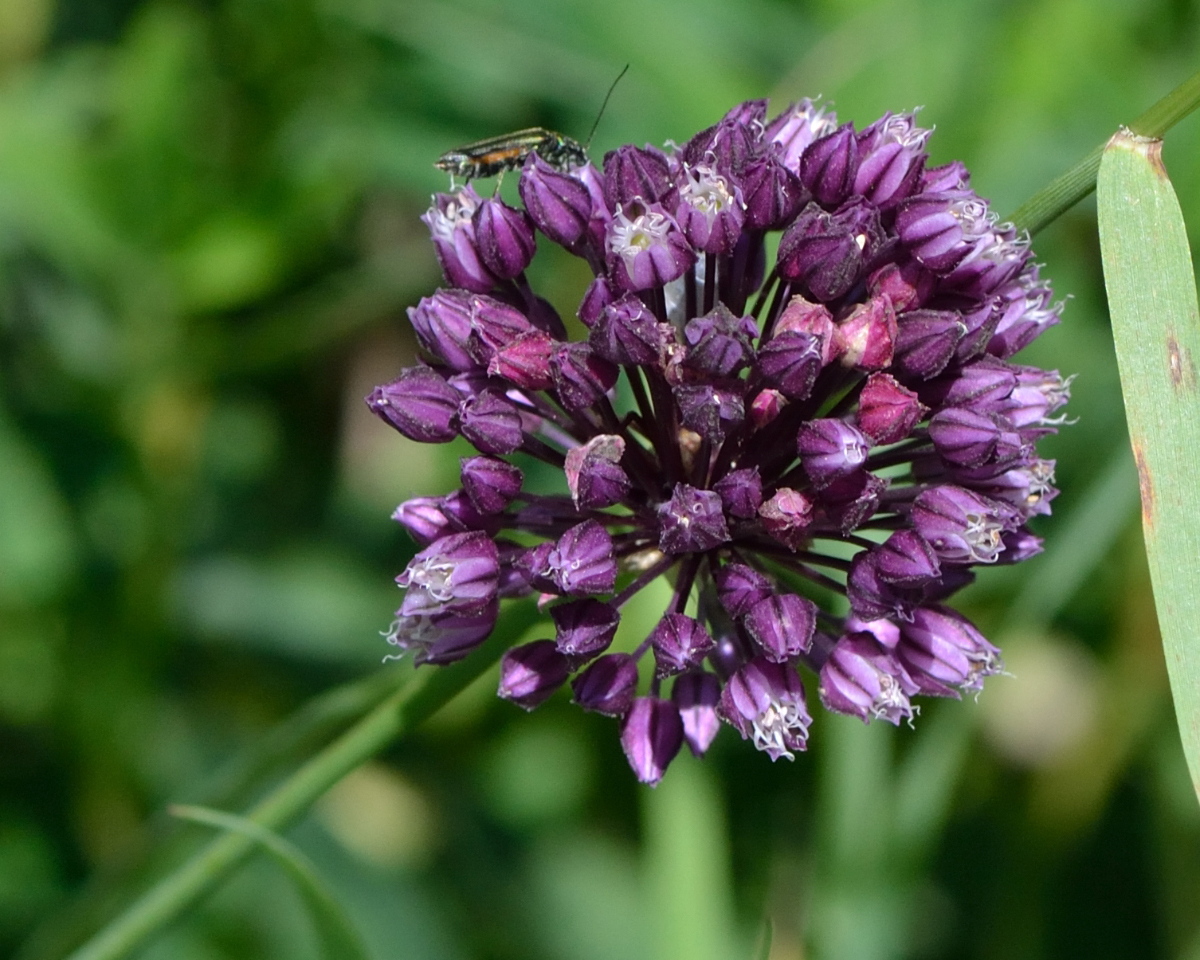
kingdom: Plantae
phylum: Tracheophyta
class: Liliopsida
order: Asparagales
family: Amaryllidaceae
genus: Allium
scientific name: Allium rotundum
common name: Sand leek
